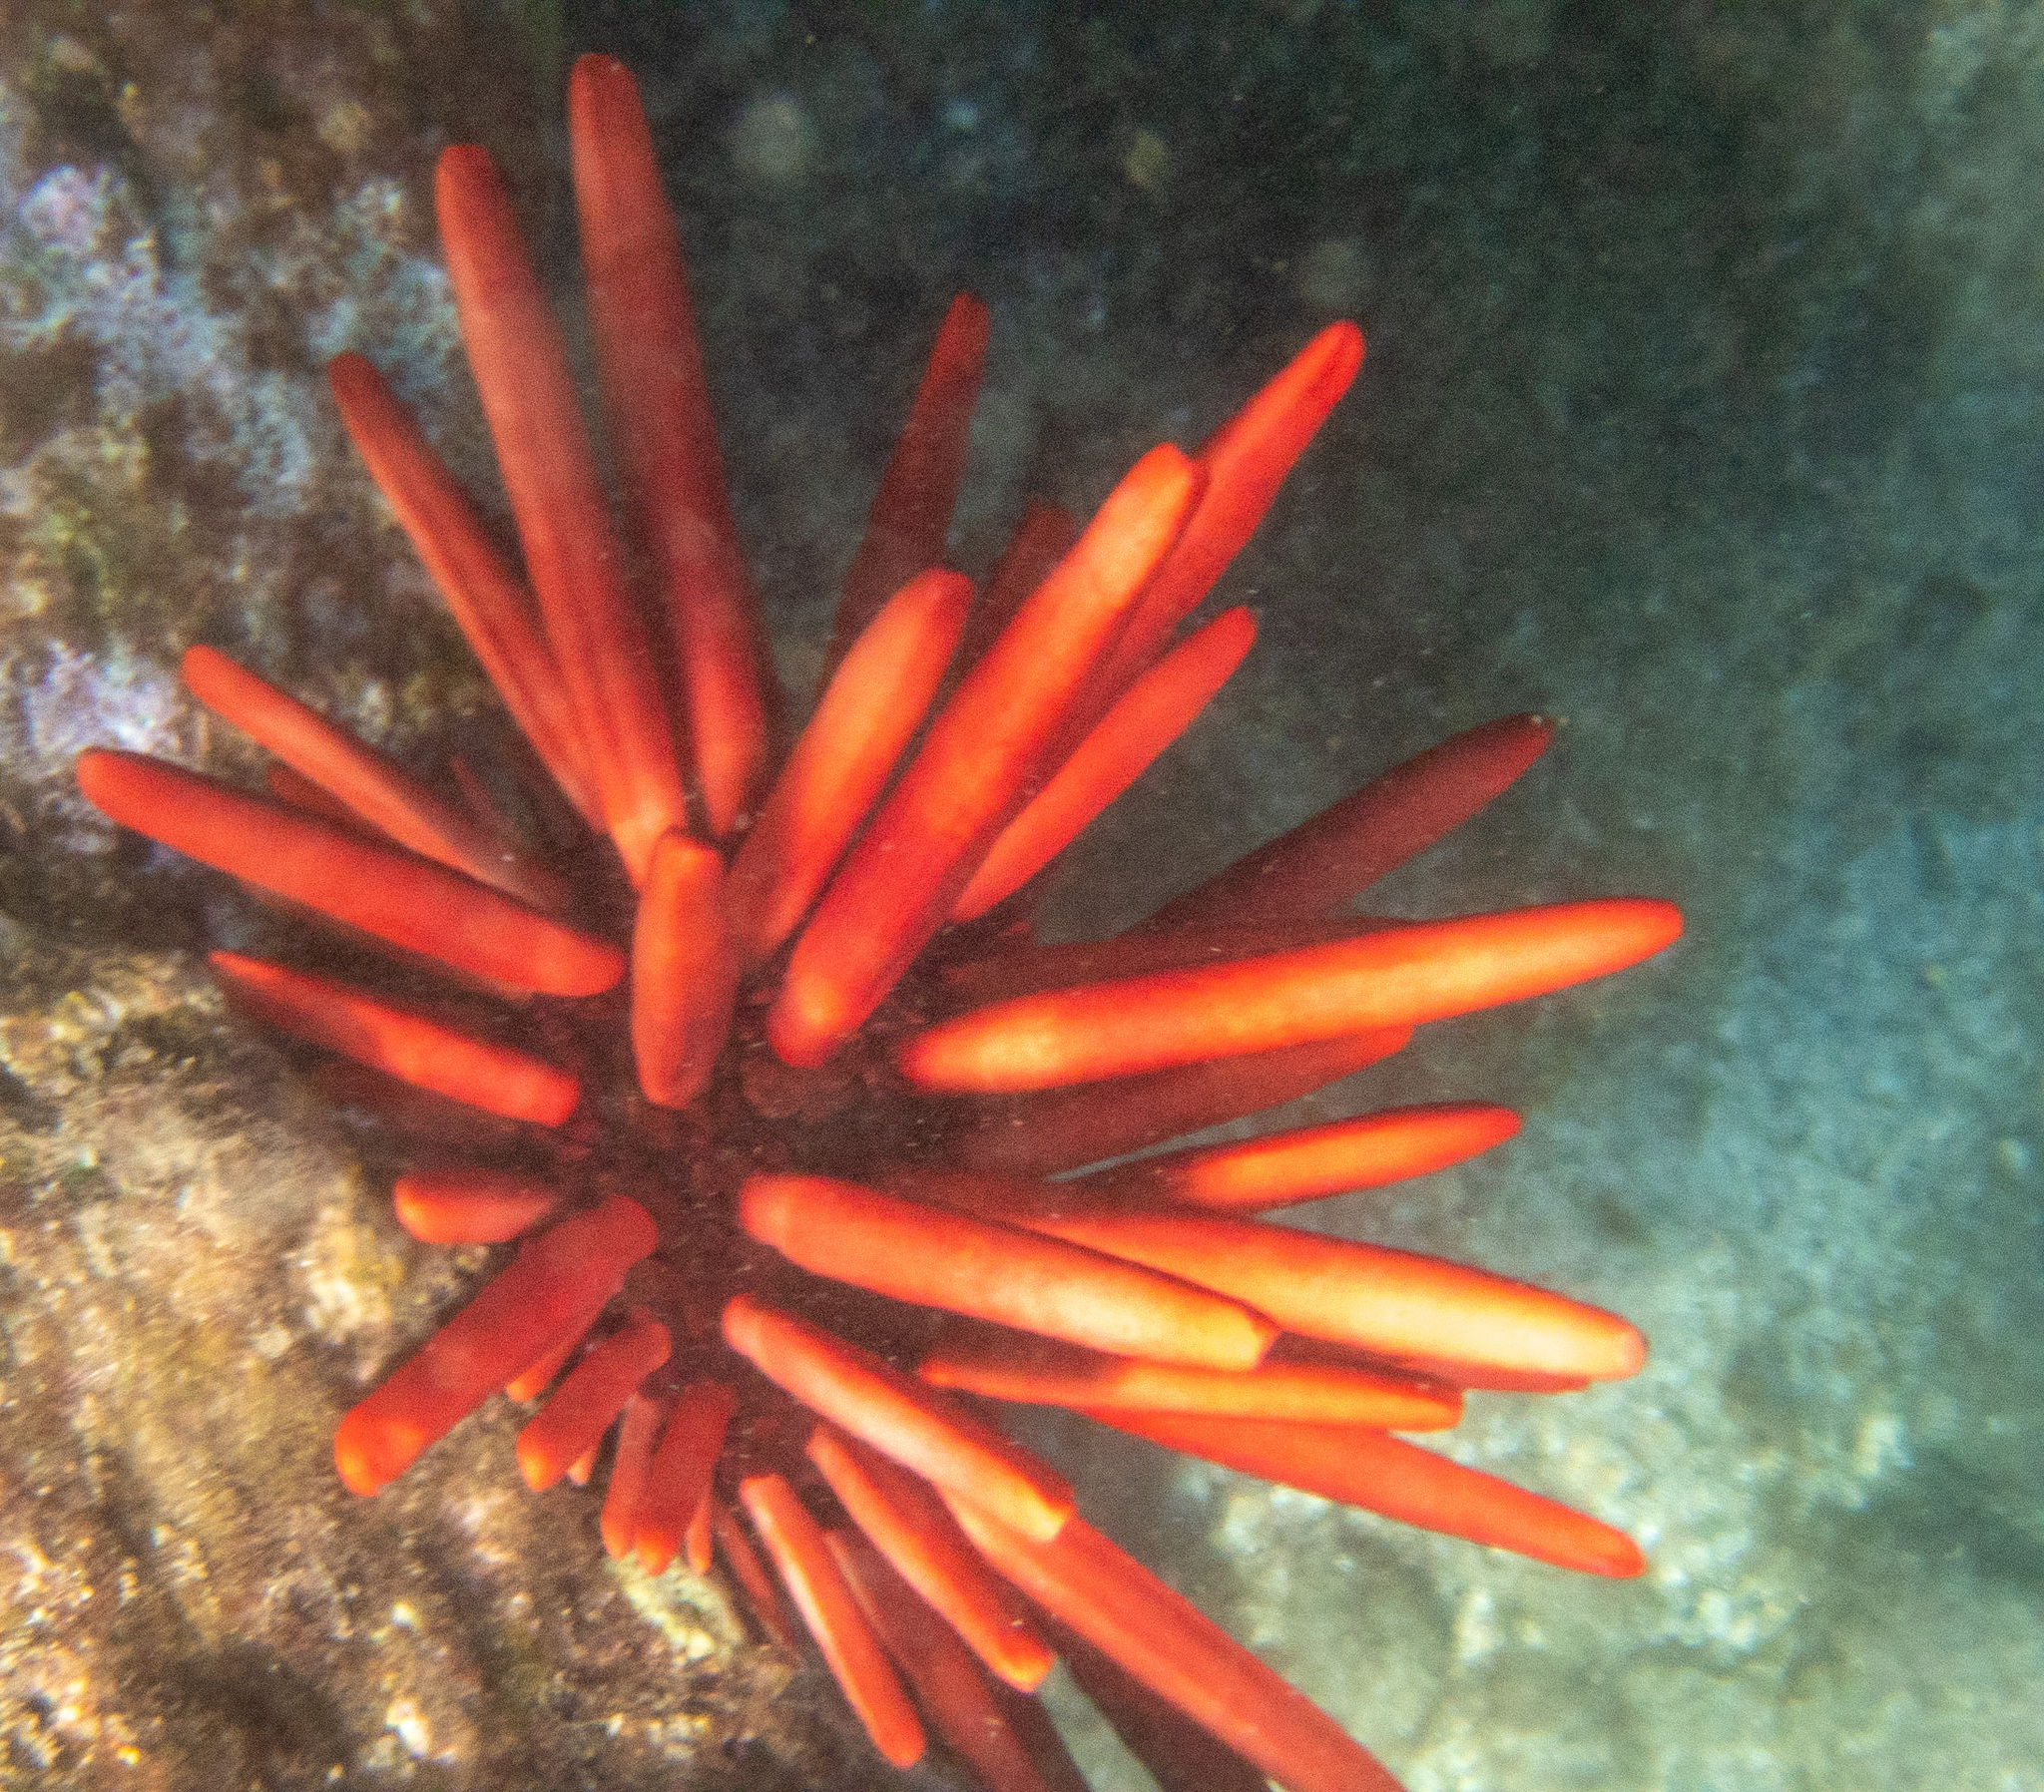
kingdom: Animalia
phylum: Echinodermata
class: Echinoidea
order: Camarodonta
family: Echinometridae
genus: Heterocentrotus
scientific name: Heterocentrotus mamillatus
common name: Slate pencil urchin
